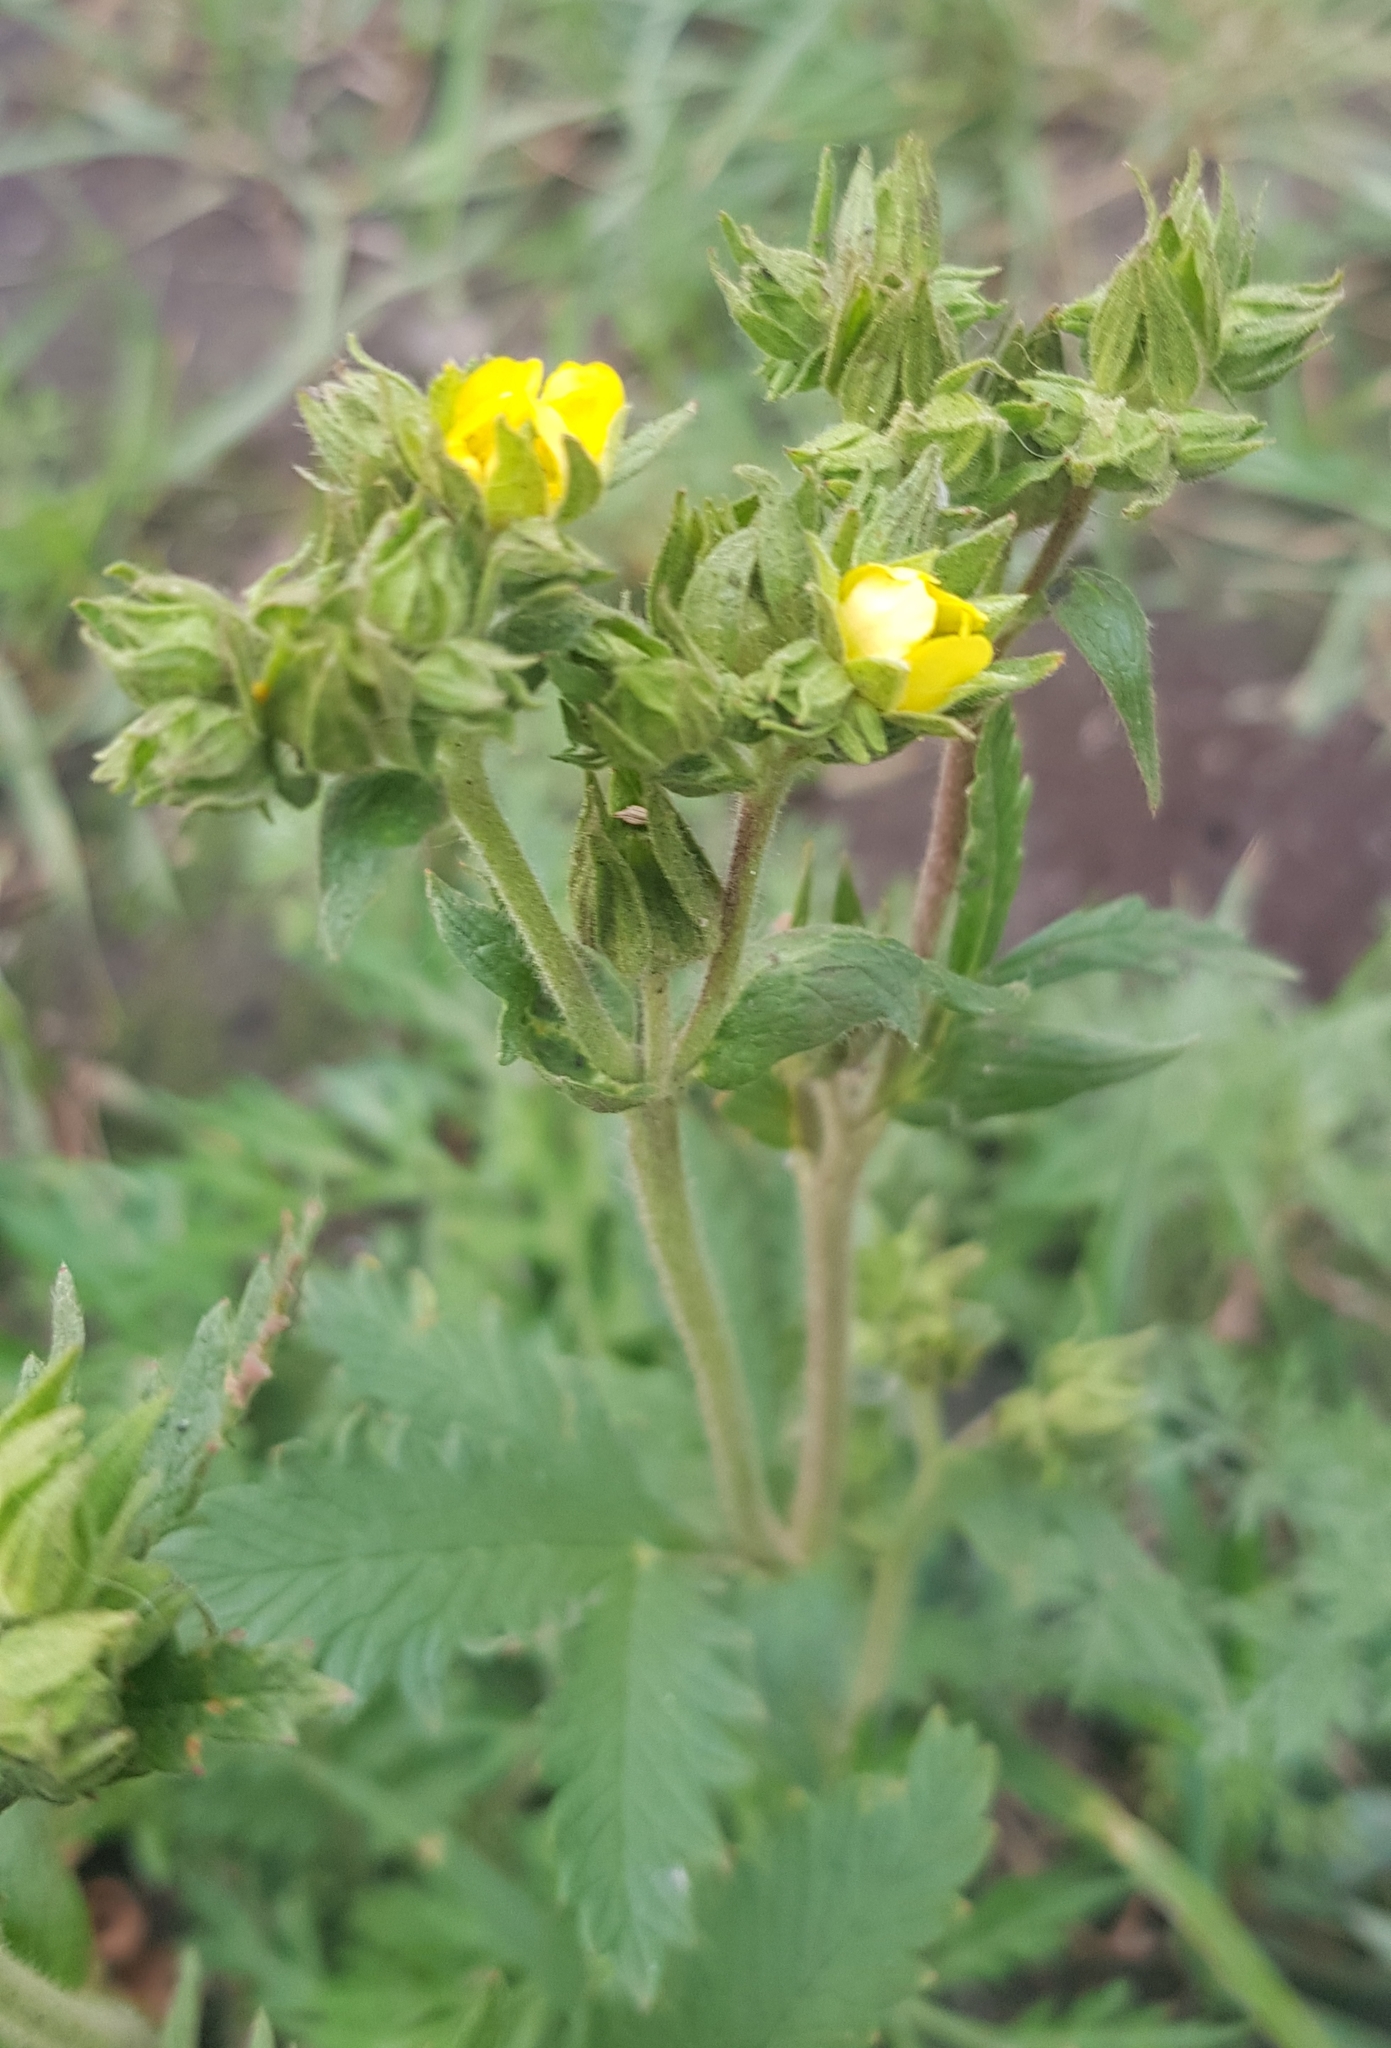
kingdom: Plantae
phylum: Tracheophyta
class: Magnoliopsida
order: Rosales
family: Rosaceae
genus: Potentilla
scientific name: Potentilla tanacetifolia
